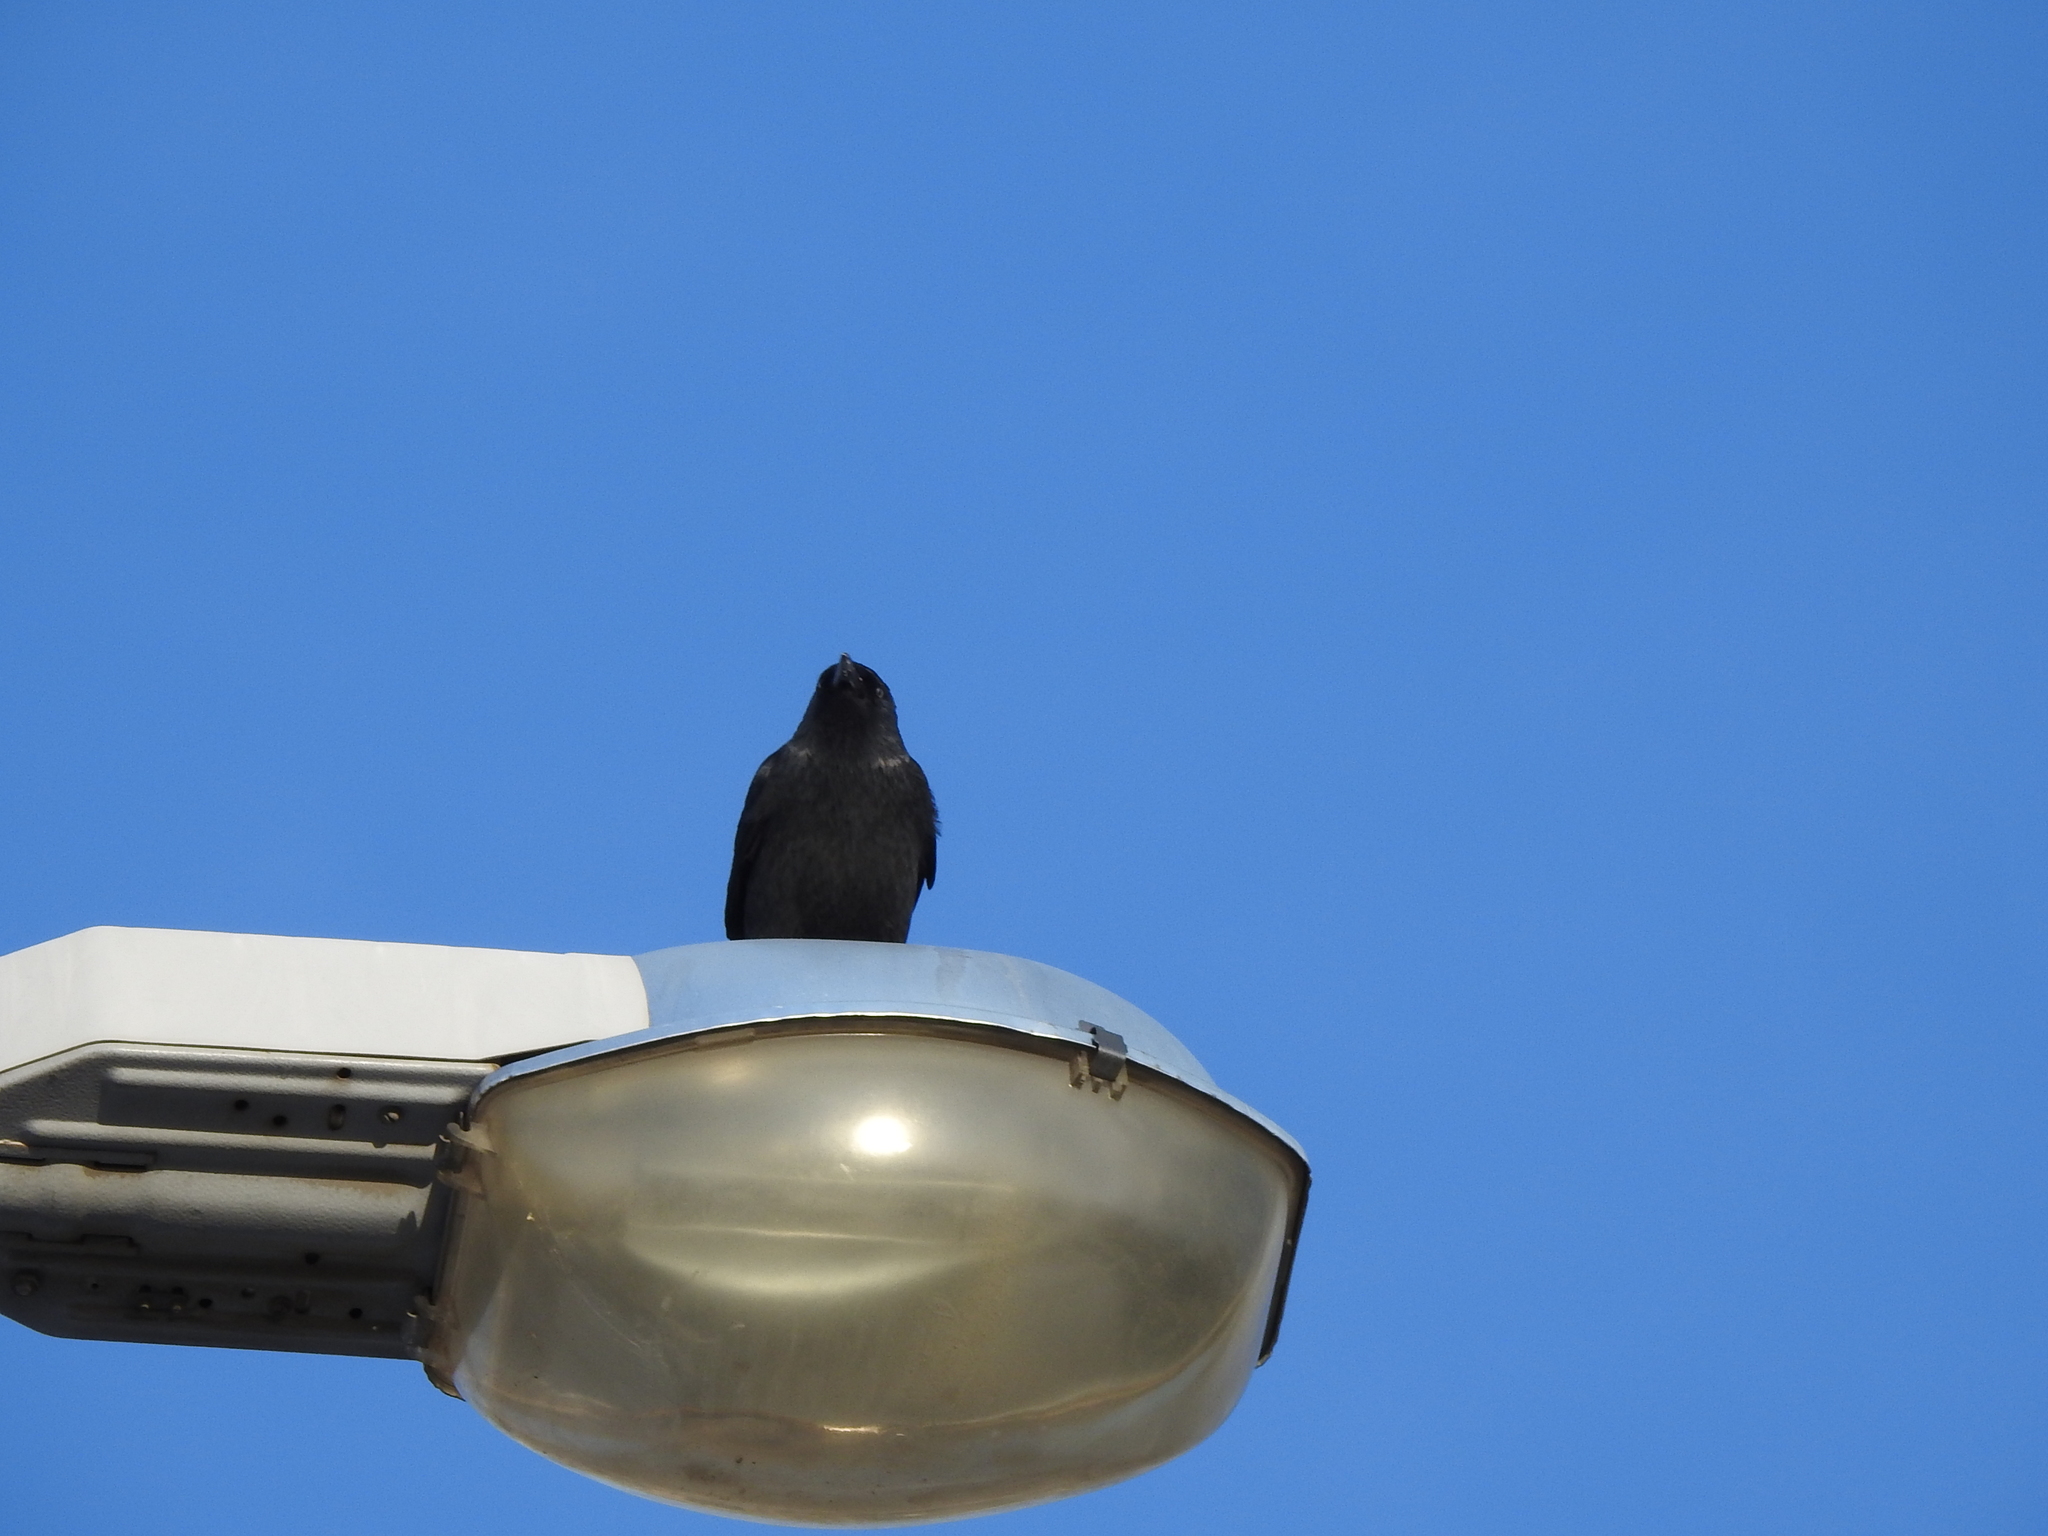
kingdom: Animalia
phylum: Chordata
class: Aves
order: Passeriformes
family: Corvidae
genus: Coloeus
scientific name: Coloeus monedula
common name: Western jackdaw
